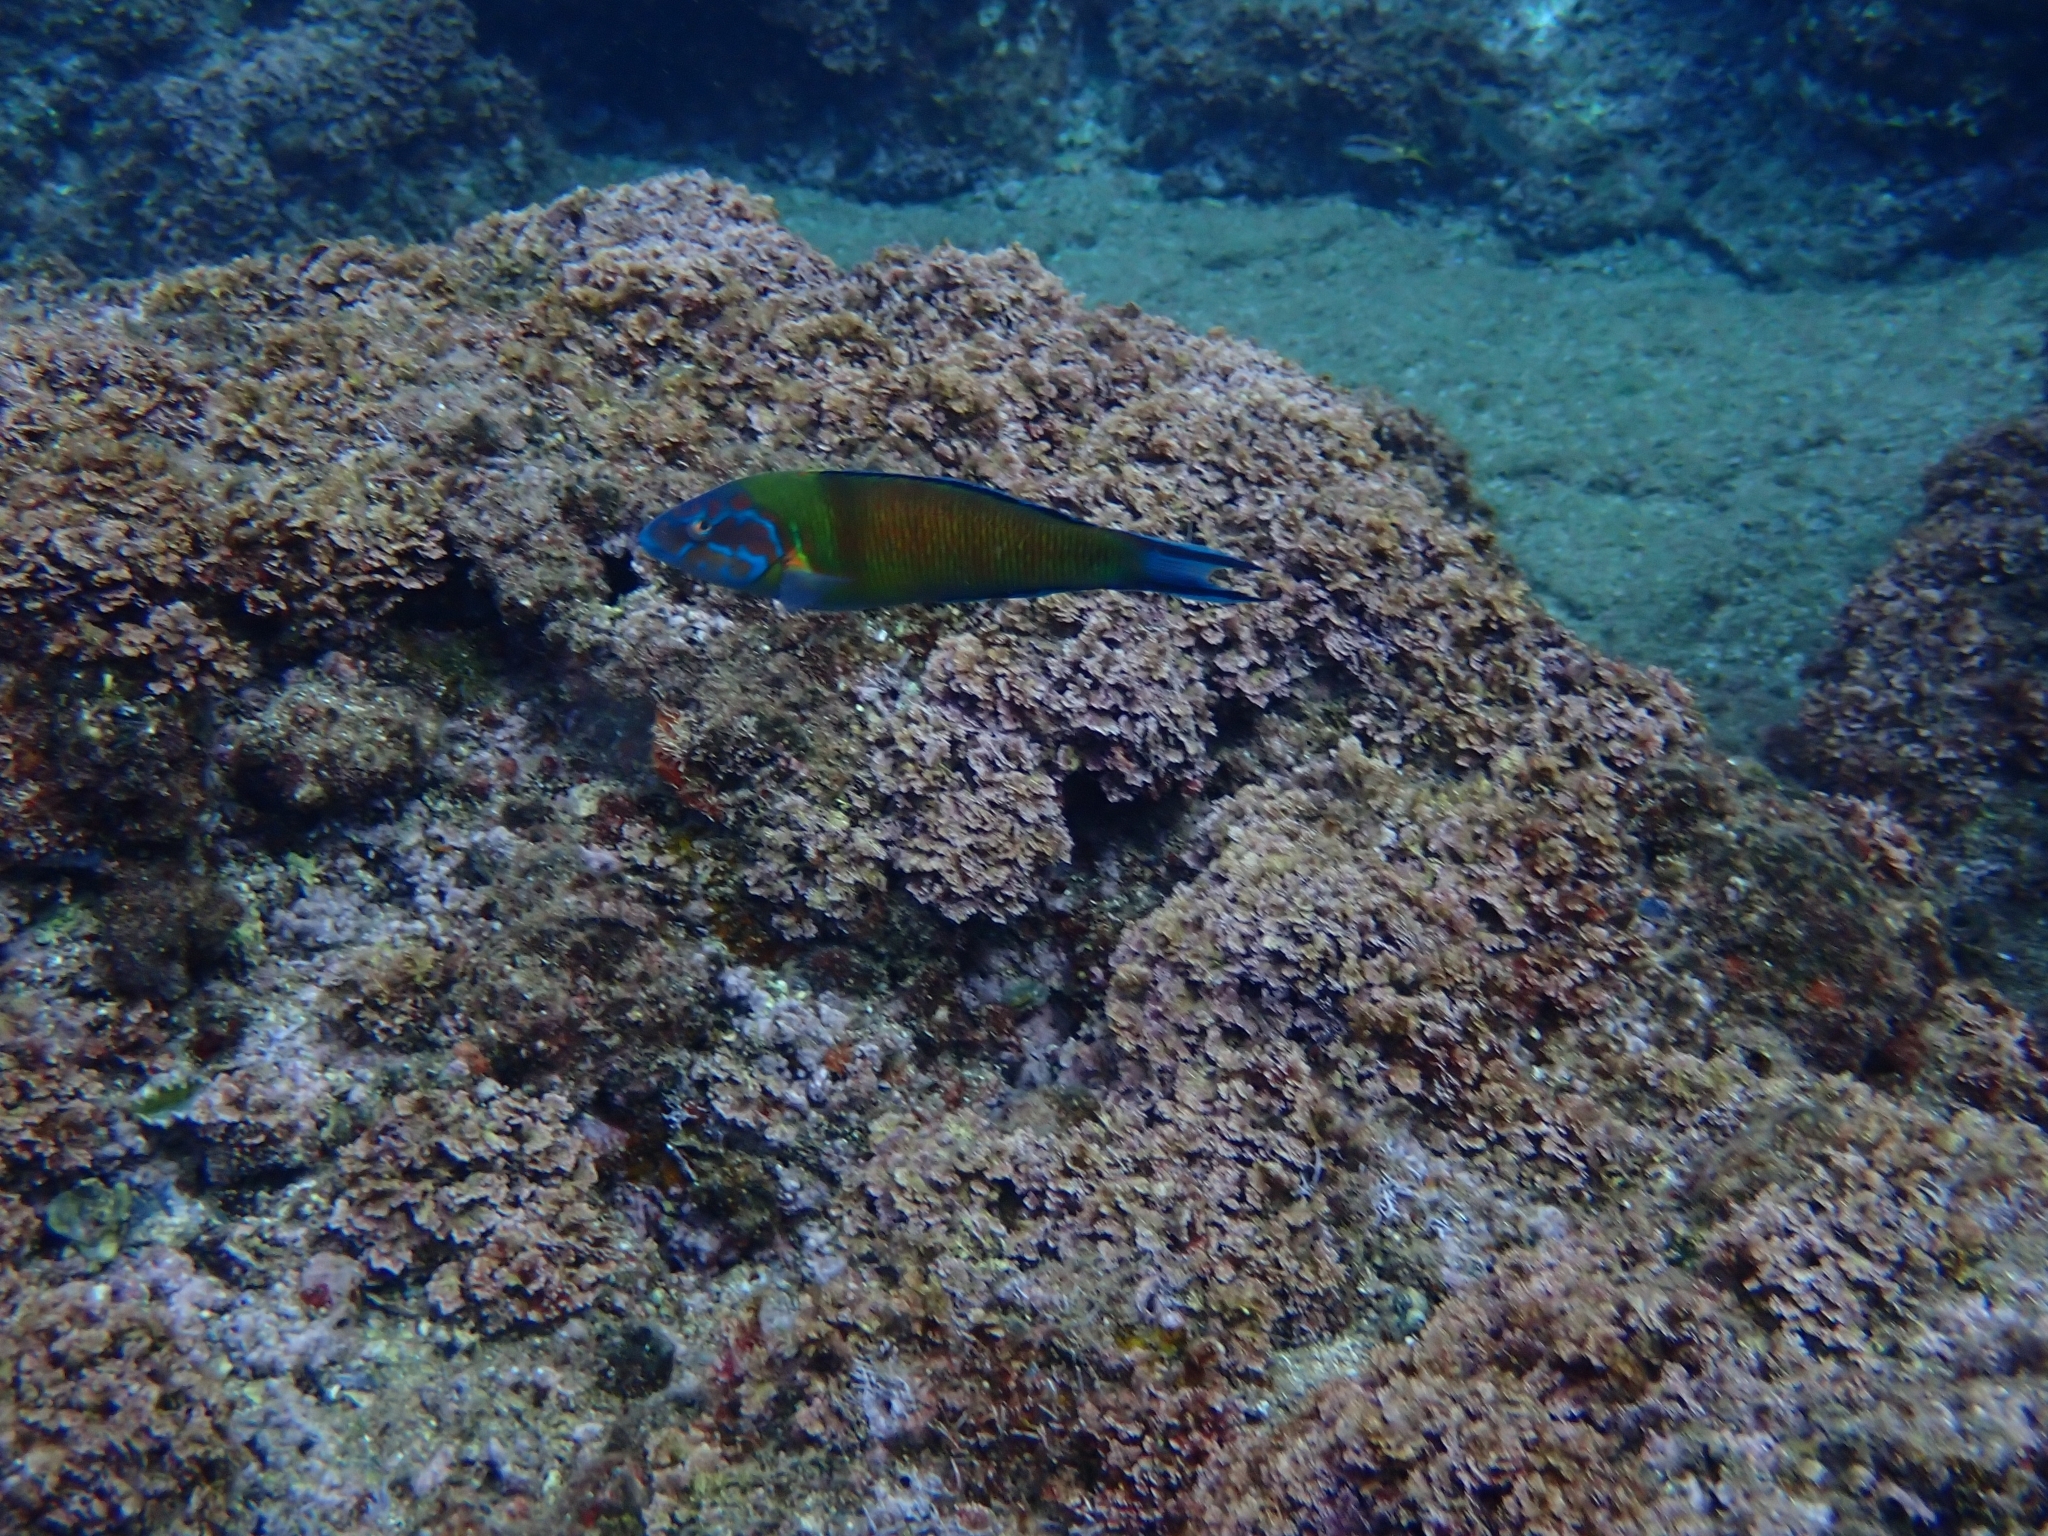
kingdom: Animalia
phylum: Chordata
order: Perciformes
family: Labridae
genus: Thalassoma
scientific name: Thalassoma pavo
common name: Ornate wrasse
